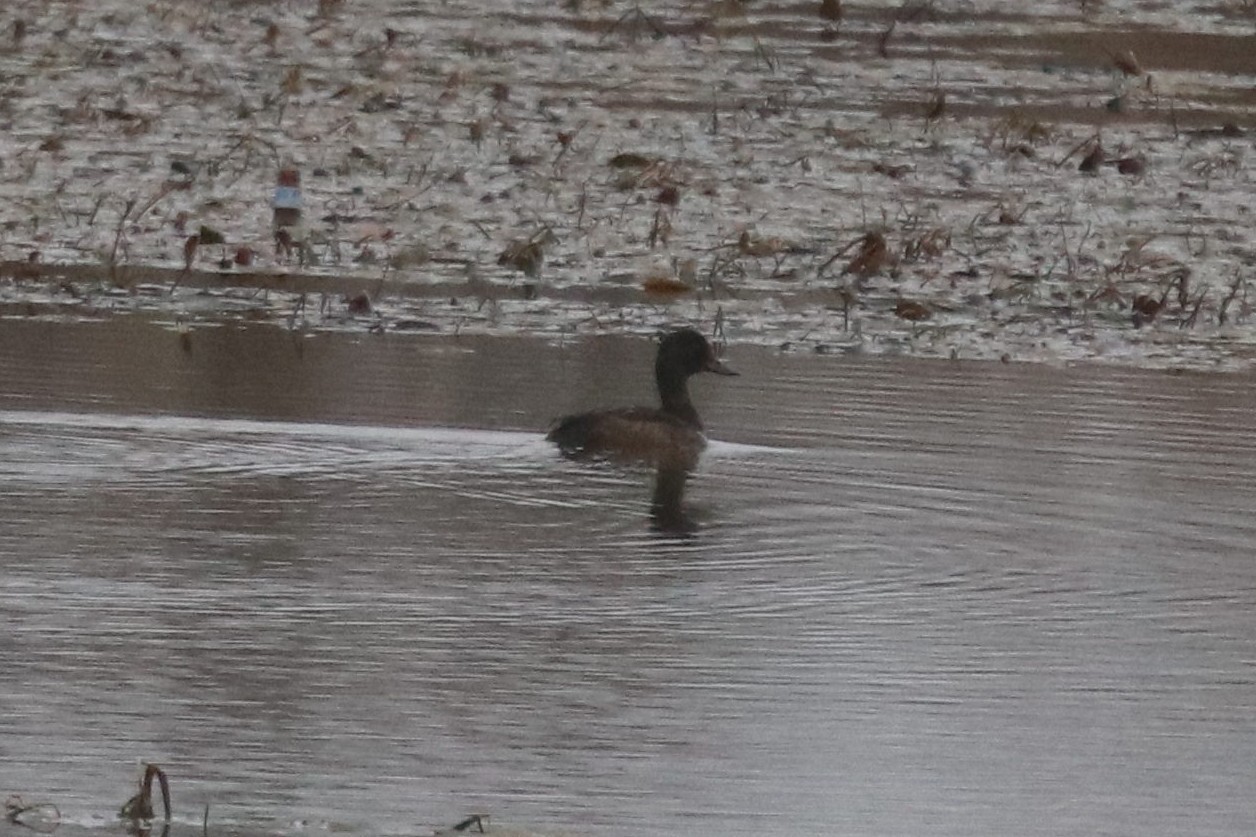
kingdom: Animalia
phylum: Chordata
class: Aves
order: Anseriformes
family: Anatidae
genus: Aythya
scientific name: Aythya fuligula
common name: Tufted duck
